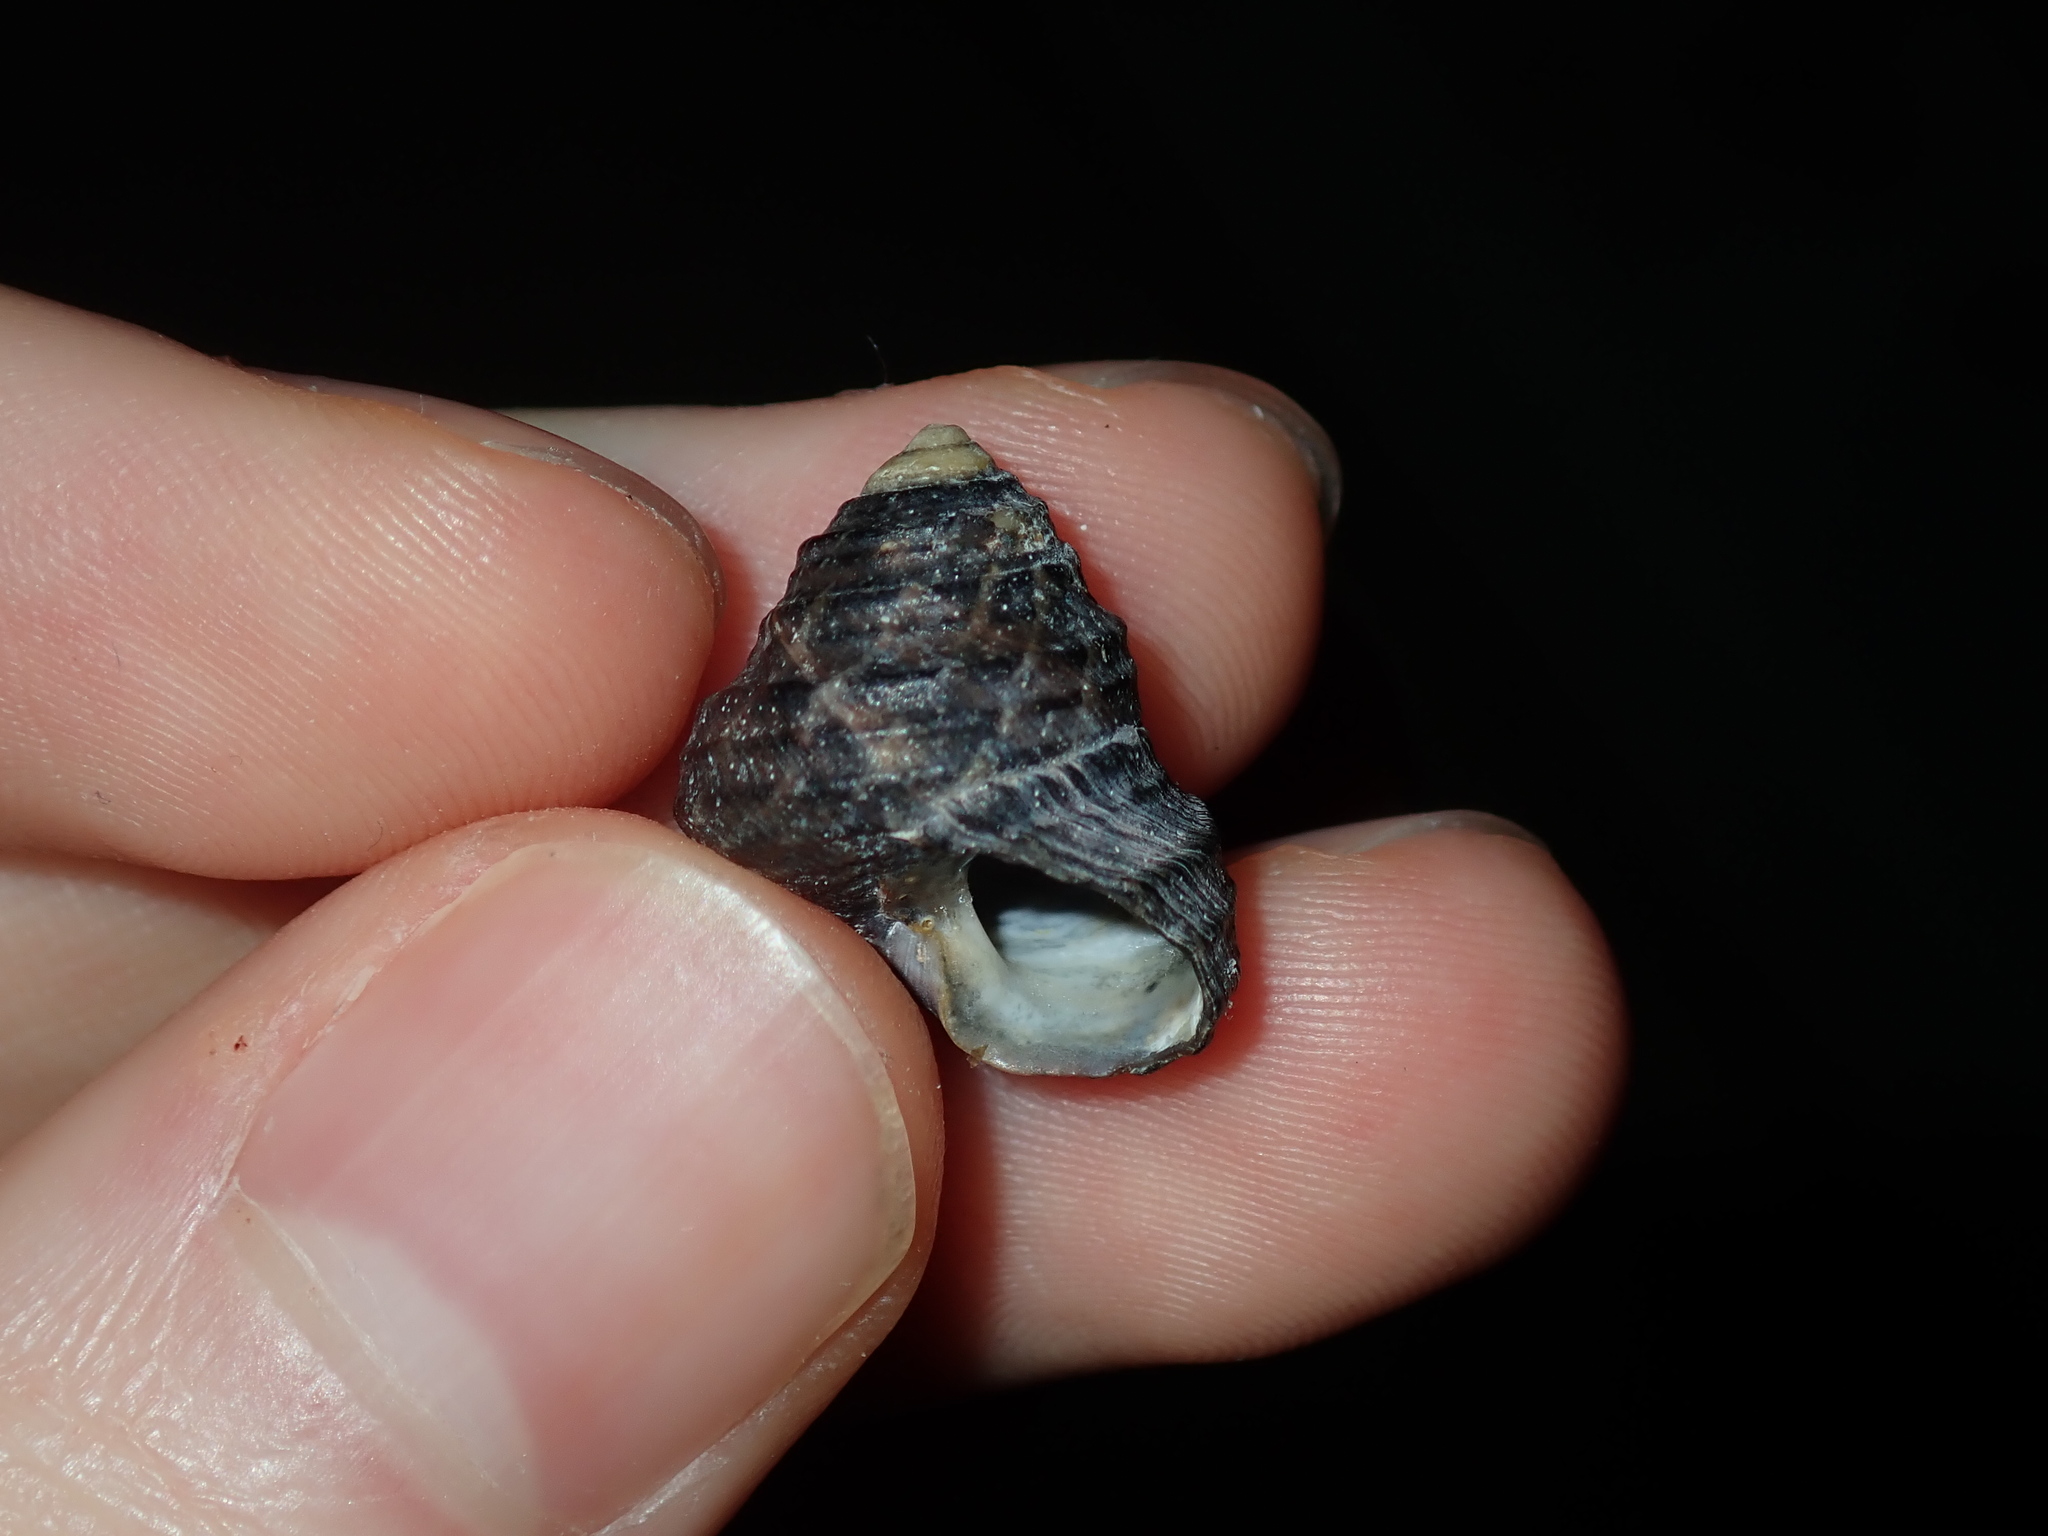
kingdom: Animalia
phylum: Mollusca
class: Gastropoda
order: Trochida
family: Trochidae
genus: Austrocochlea
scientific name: Austrocochlea constricta
